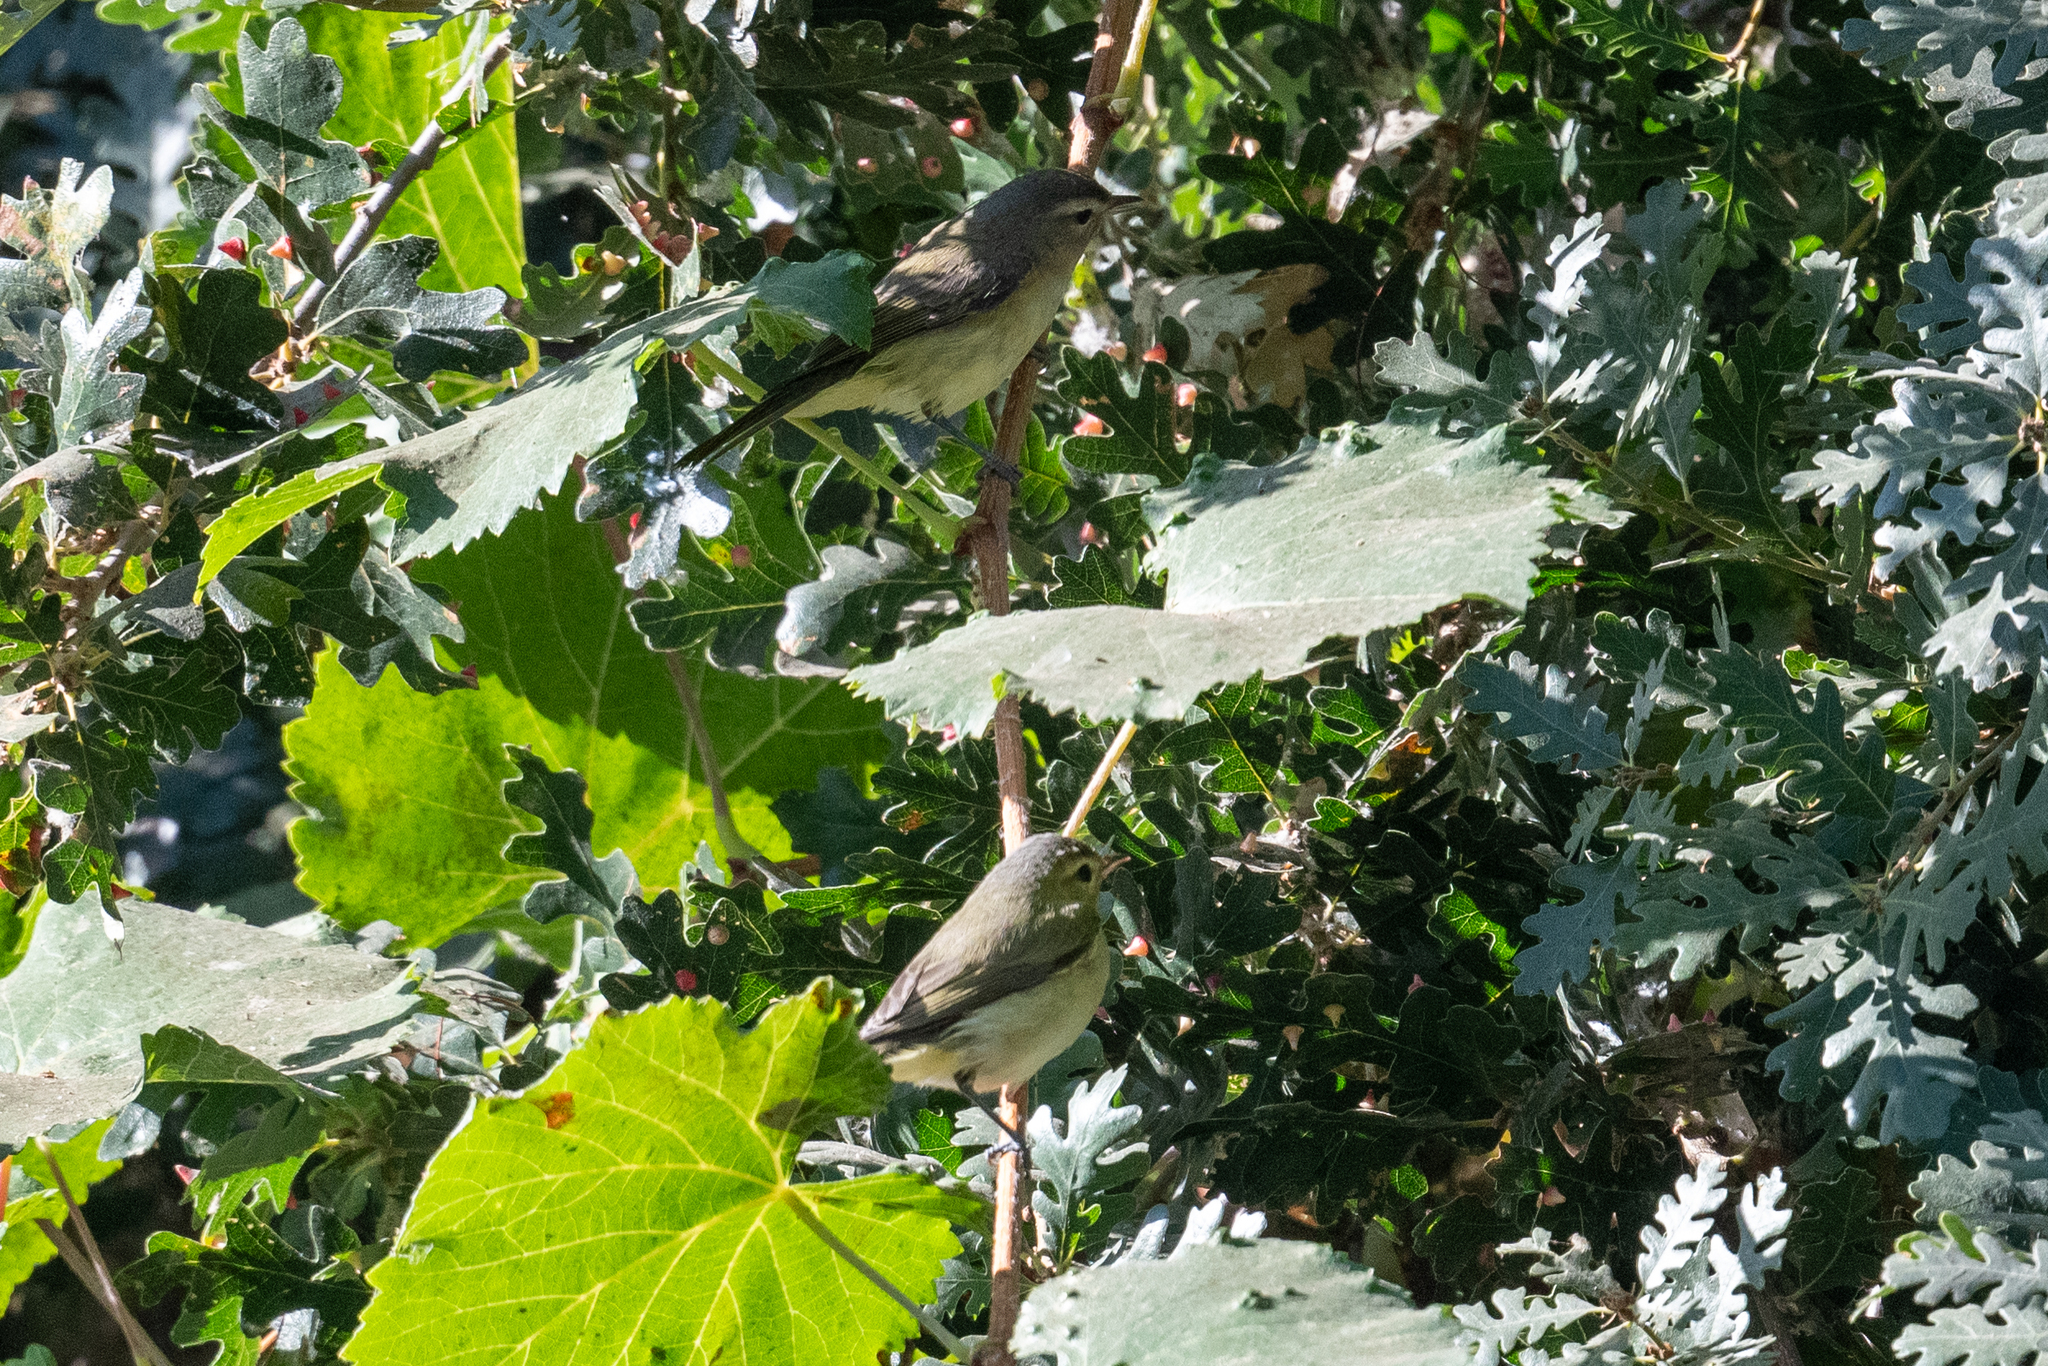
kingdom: Animalia
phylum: Chordata
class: Aves
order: Passeriformes
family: Vireonidae
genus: Vireo
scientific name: Vireo gilvus
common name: Warbling vireo
